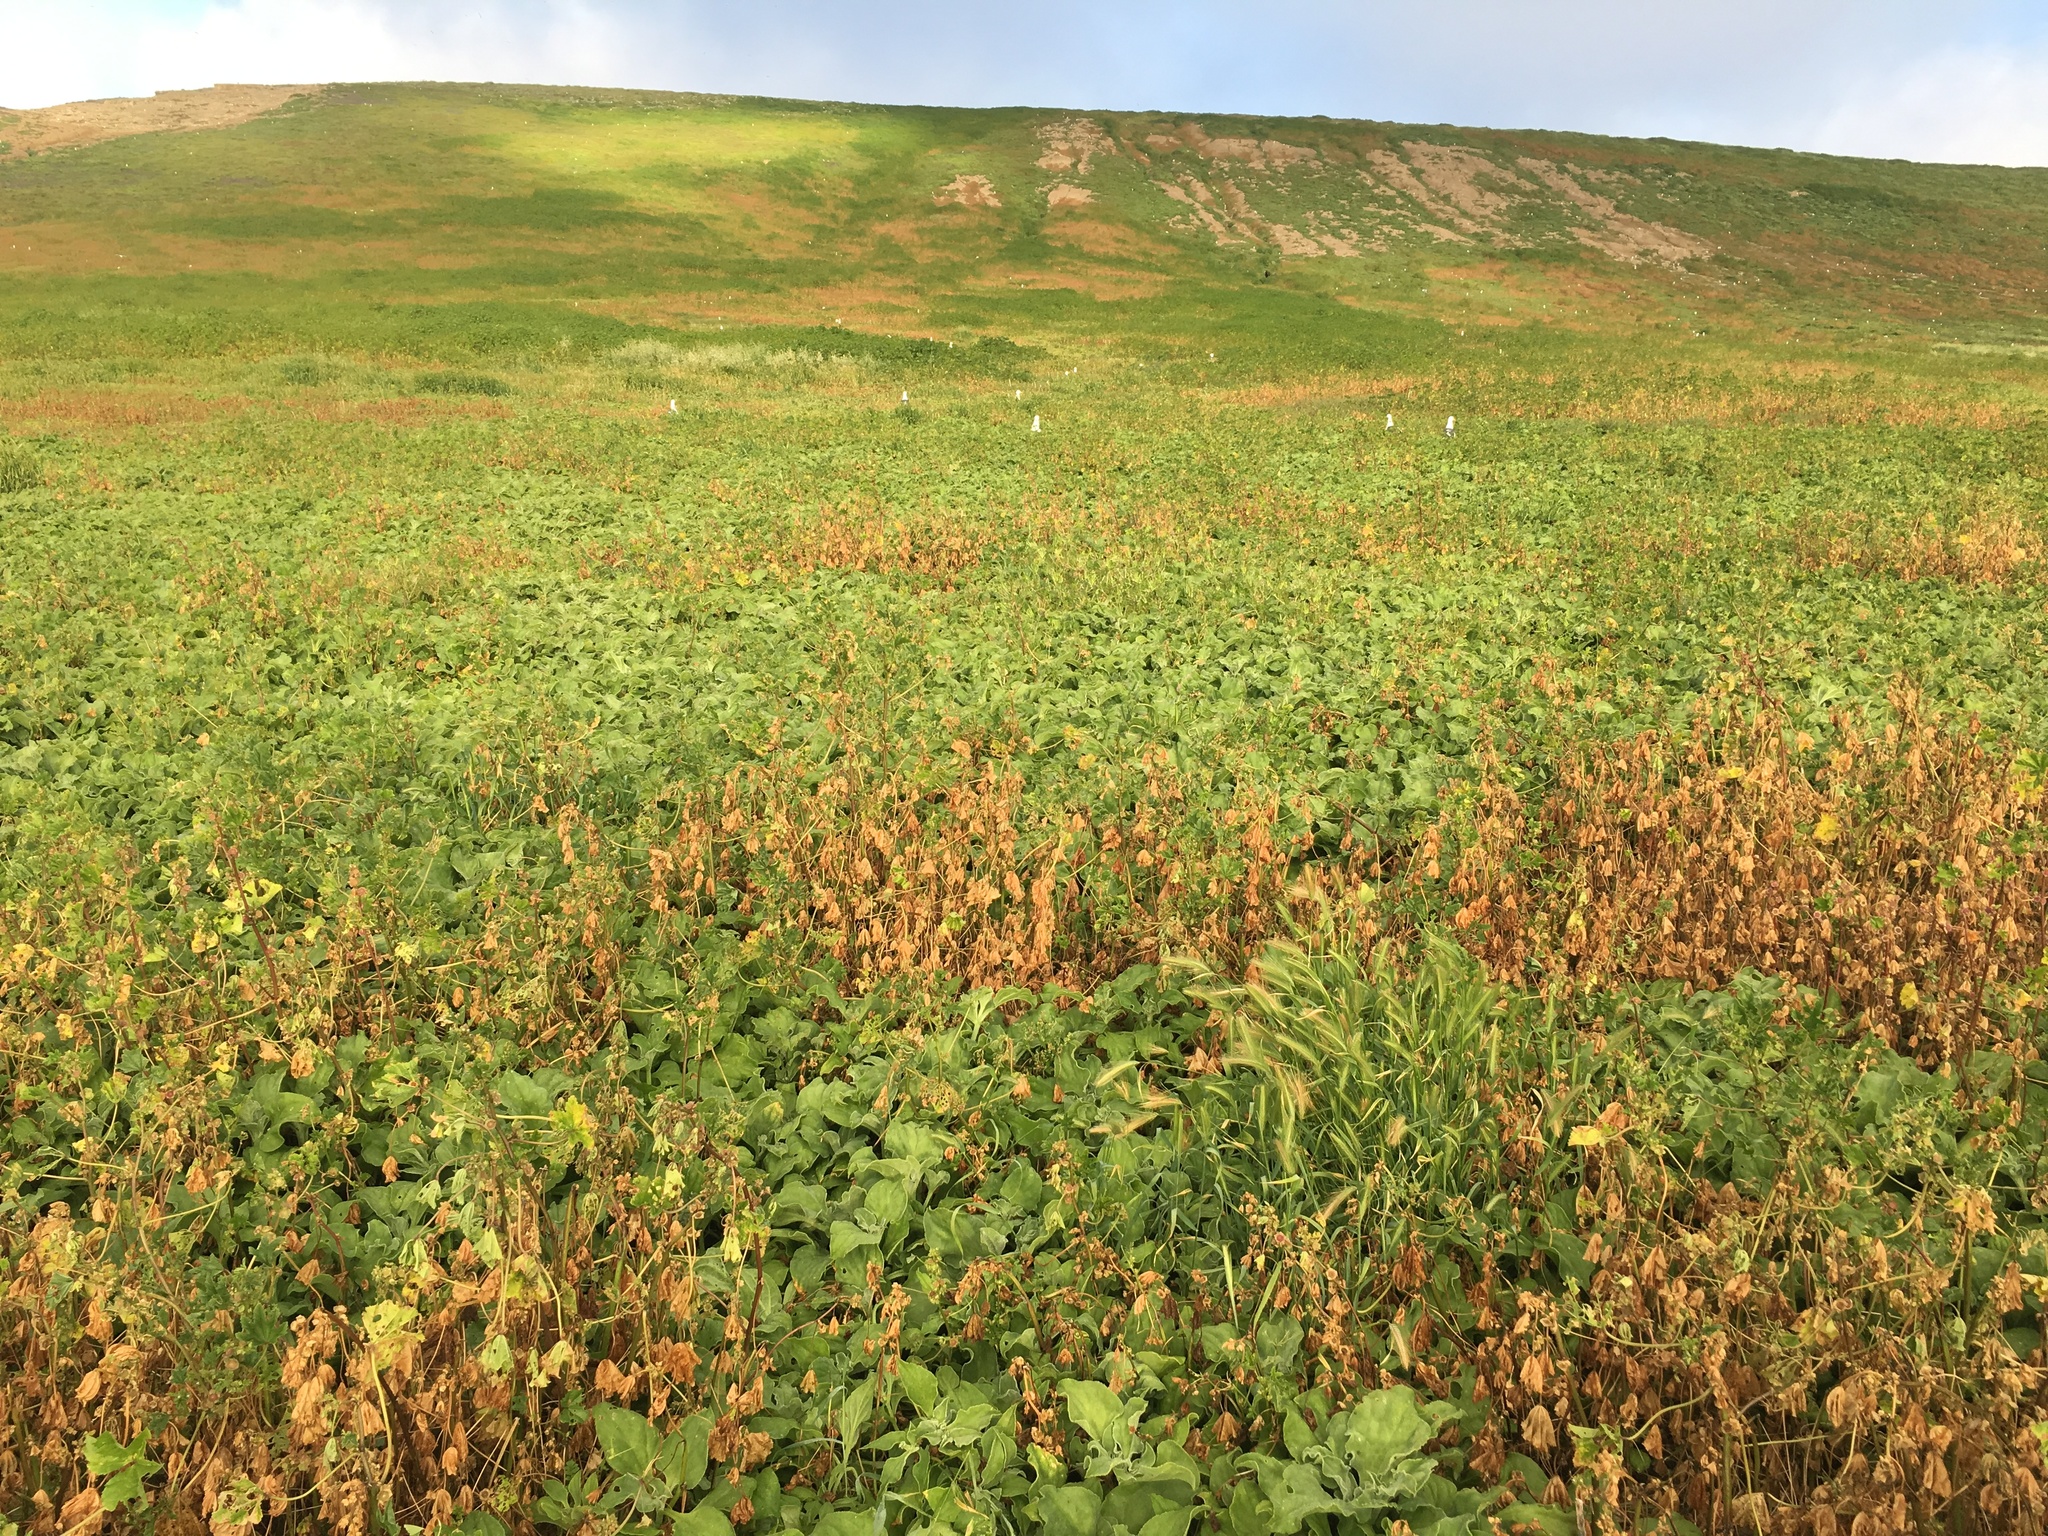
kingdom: Plantae
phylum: Tracheophyta
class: Magnoliopsida
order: Caryophyllales
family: Aizoaceae
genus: Mesembryanthemum
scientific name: Mesembryanthemum crystallinum
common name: Common iceplant
